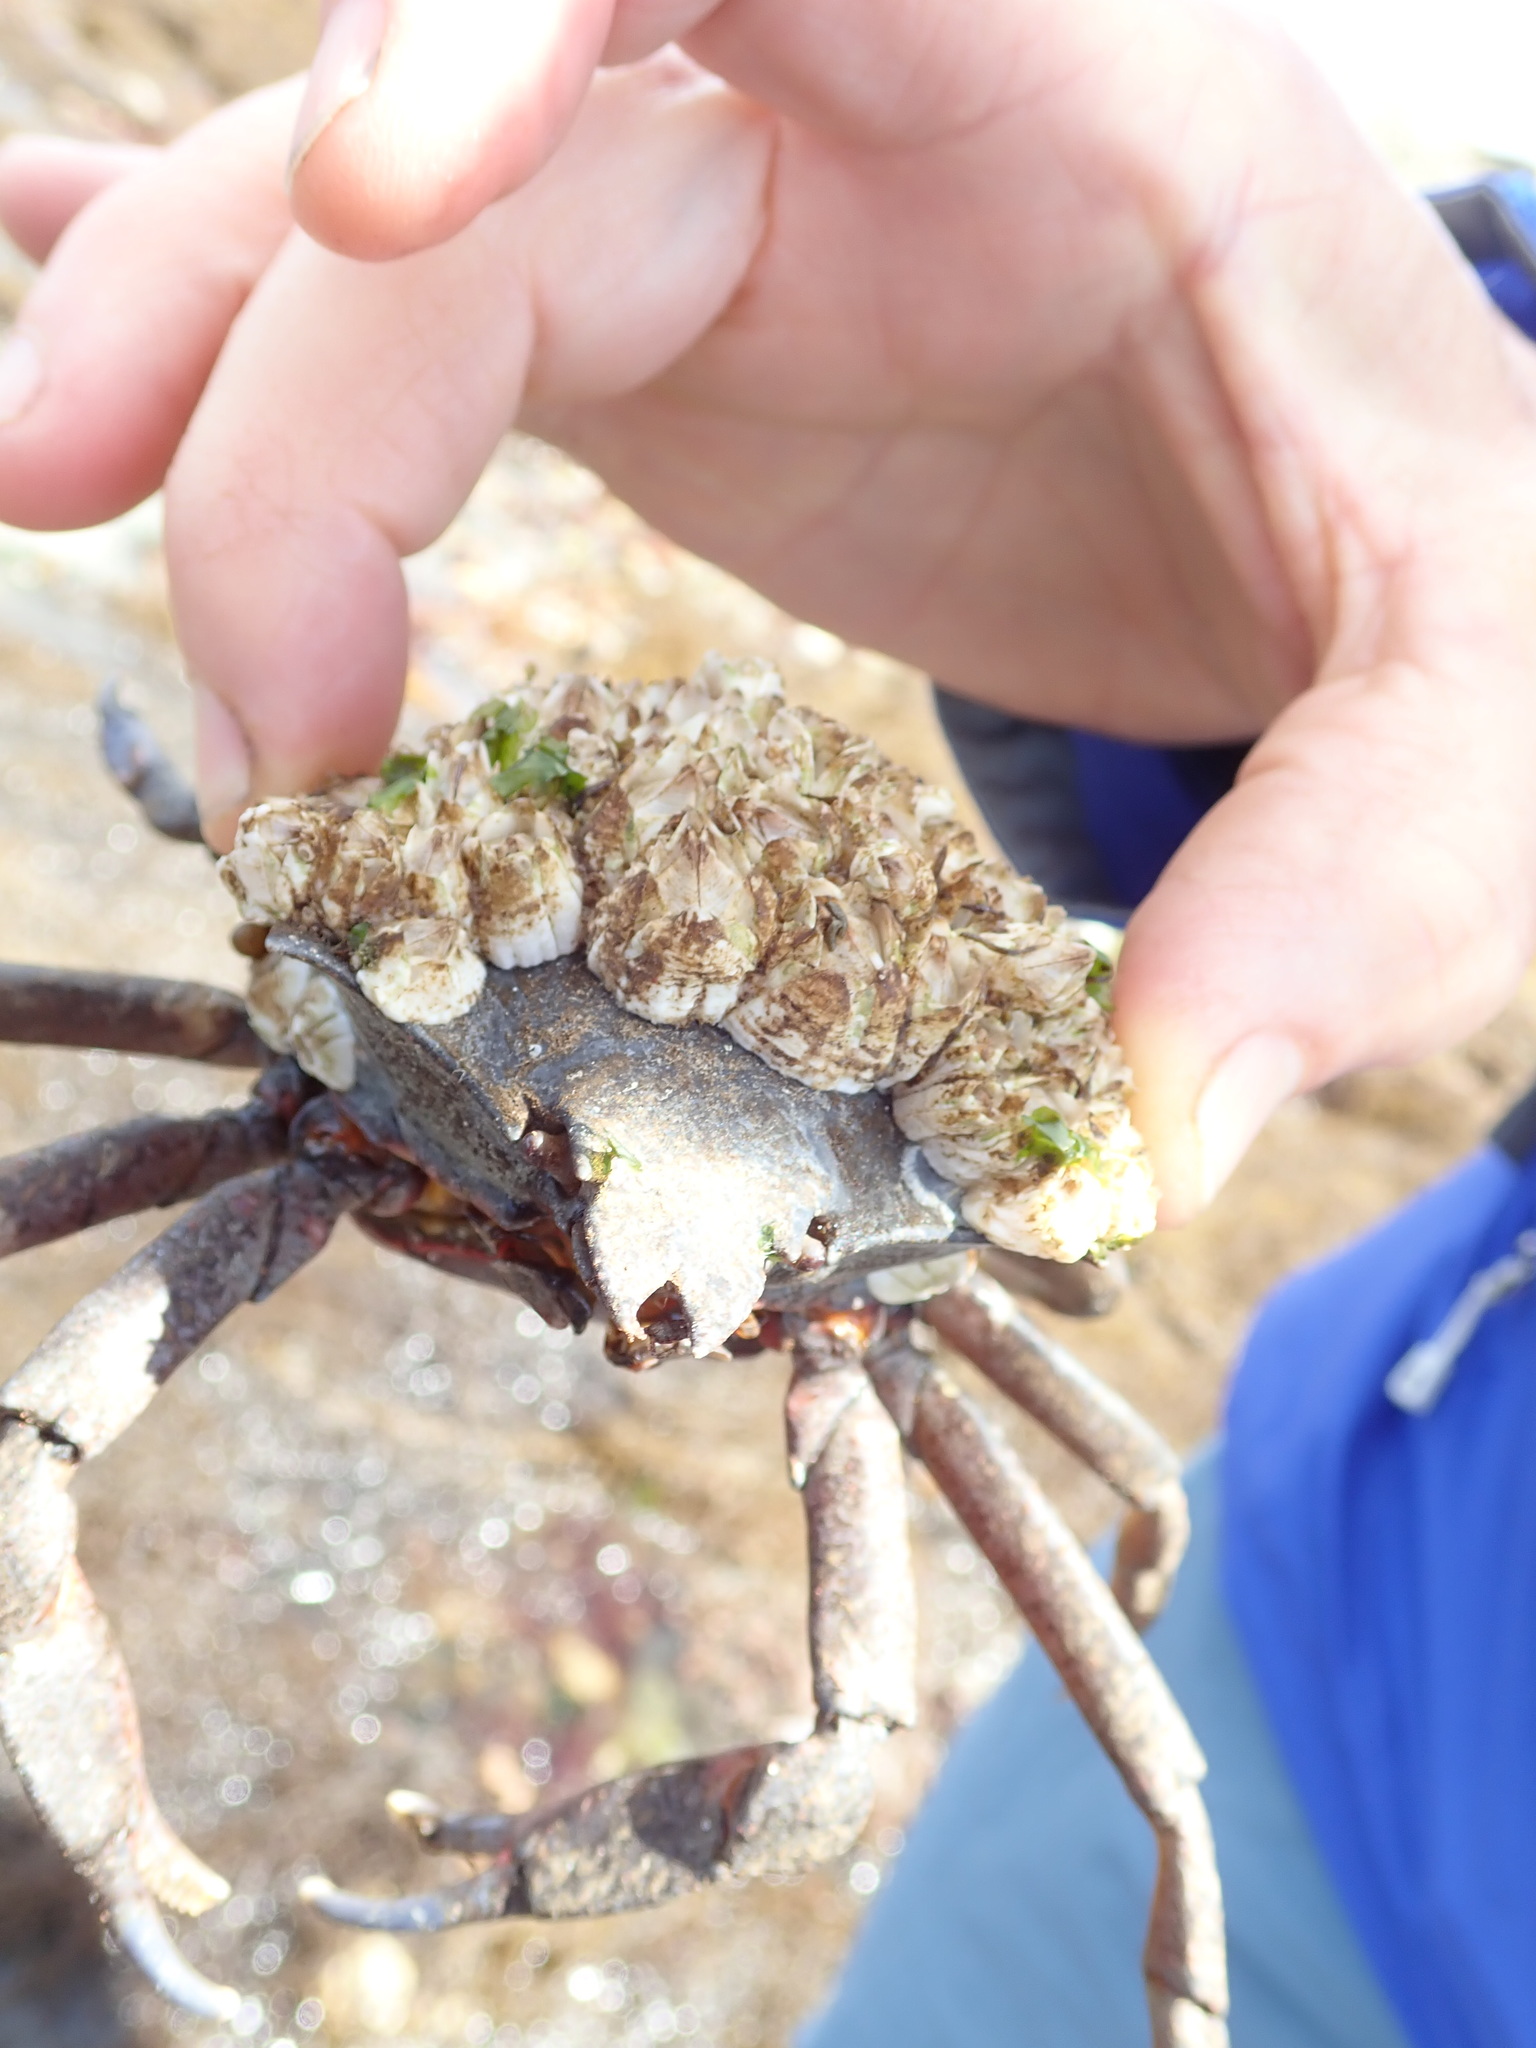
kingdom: Animalia
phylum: Arthropoda
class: Malacostraca
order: Decapoda
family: Epialtidae
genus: Pugettia
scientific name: Pugettia producta
